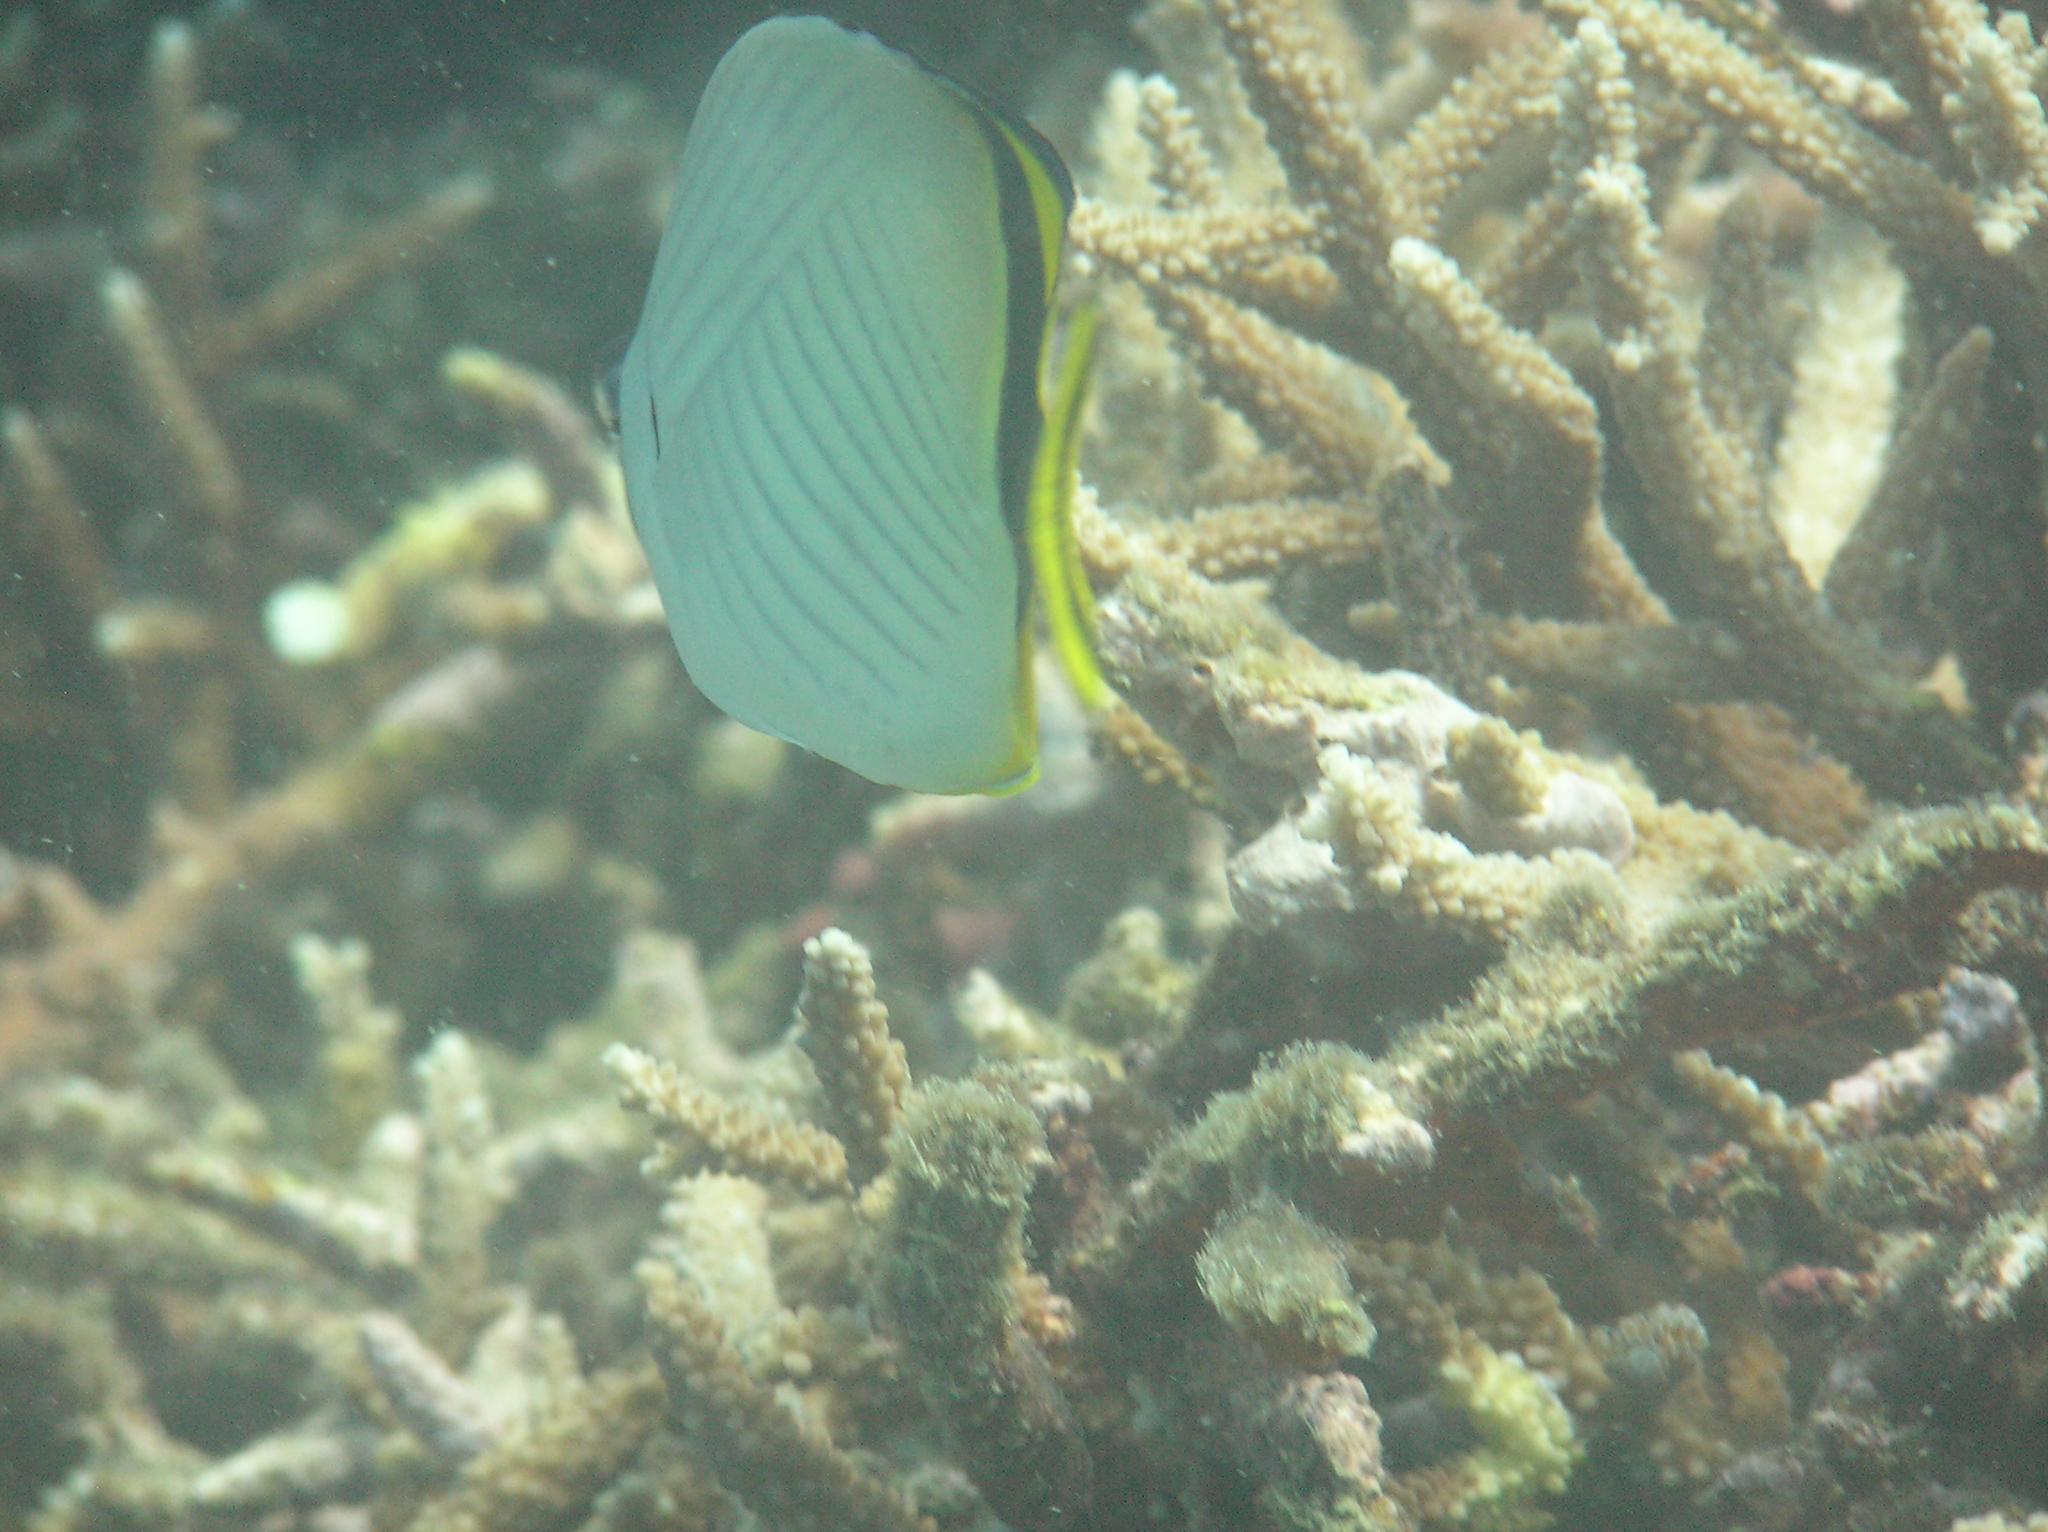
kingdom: Animalia
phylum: Chordata
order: Perciformes
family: Chaetodontidae
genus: Chaetodon
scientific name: Chaetodon vagabundus
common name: Vagabond butterflyfish
